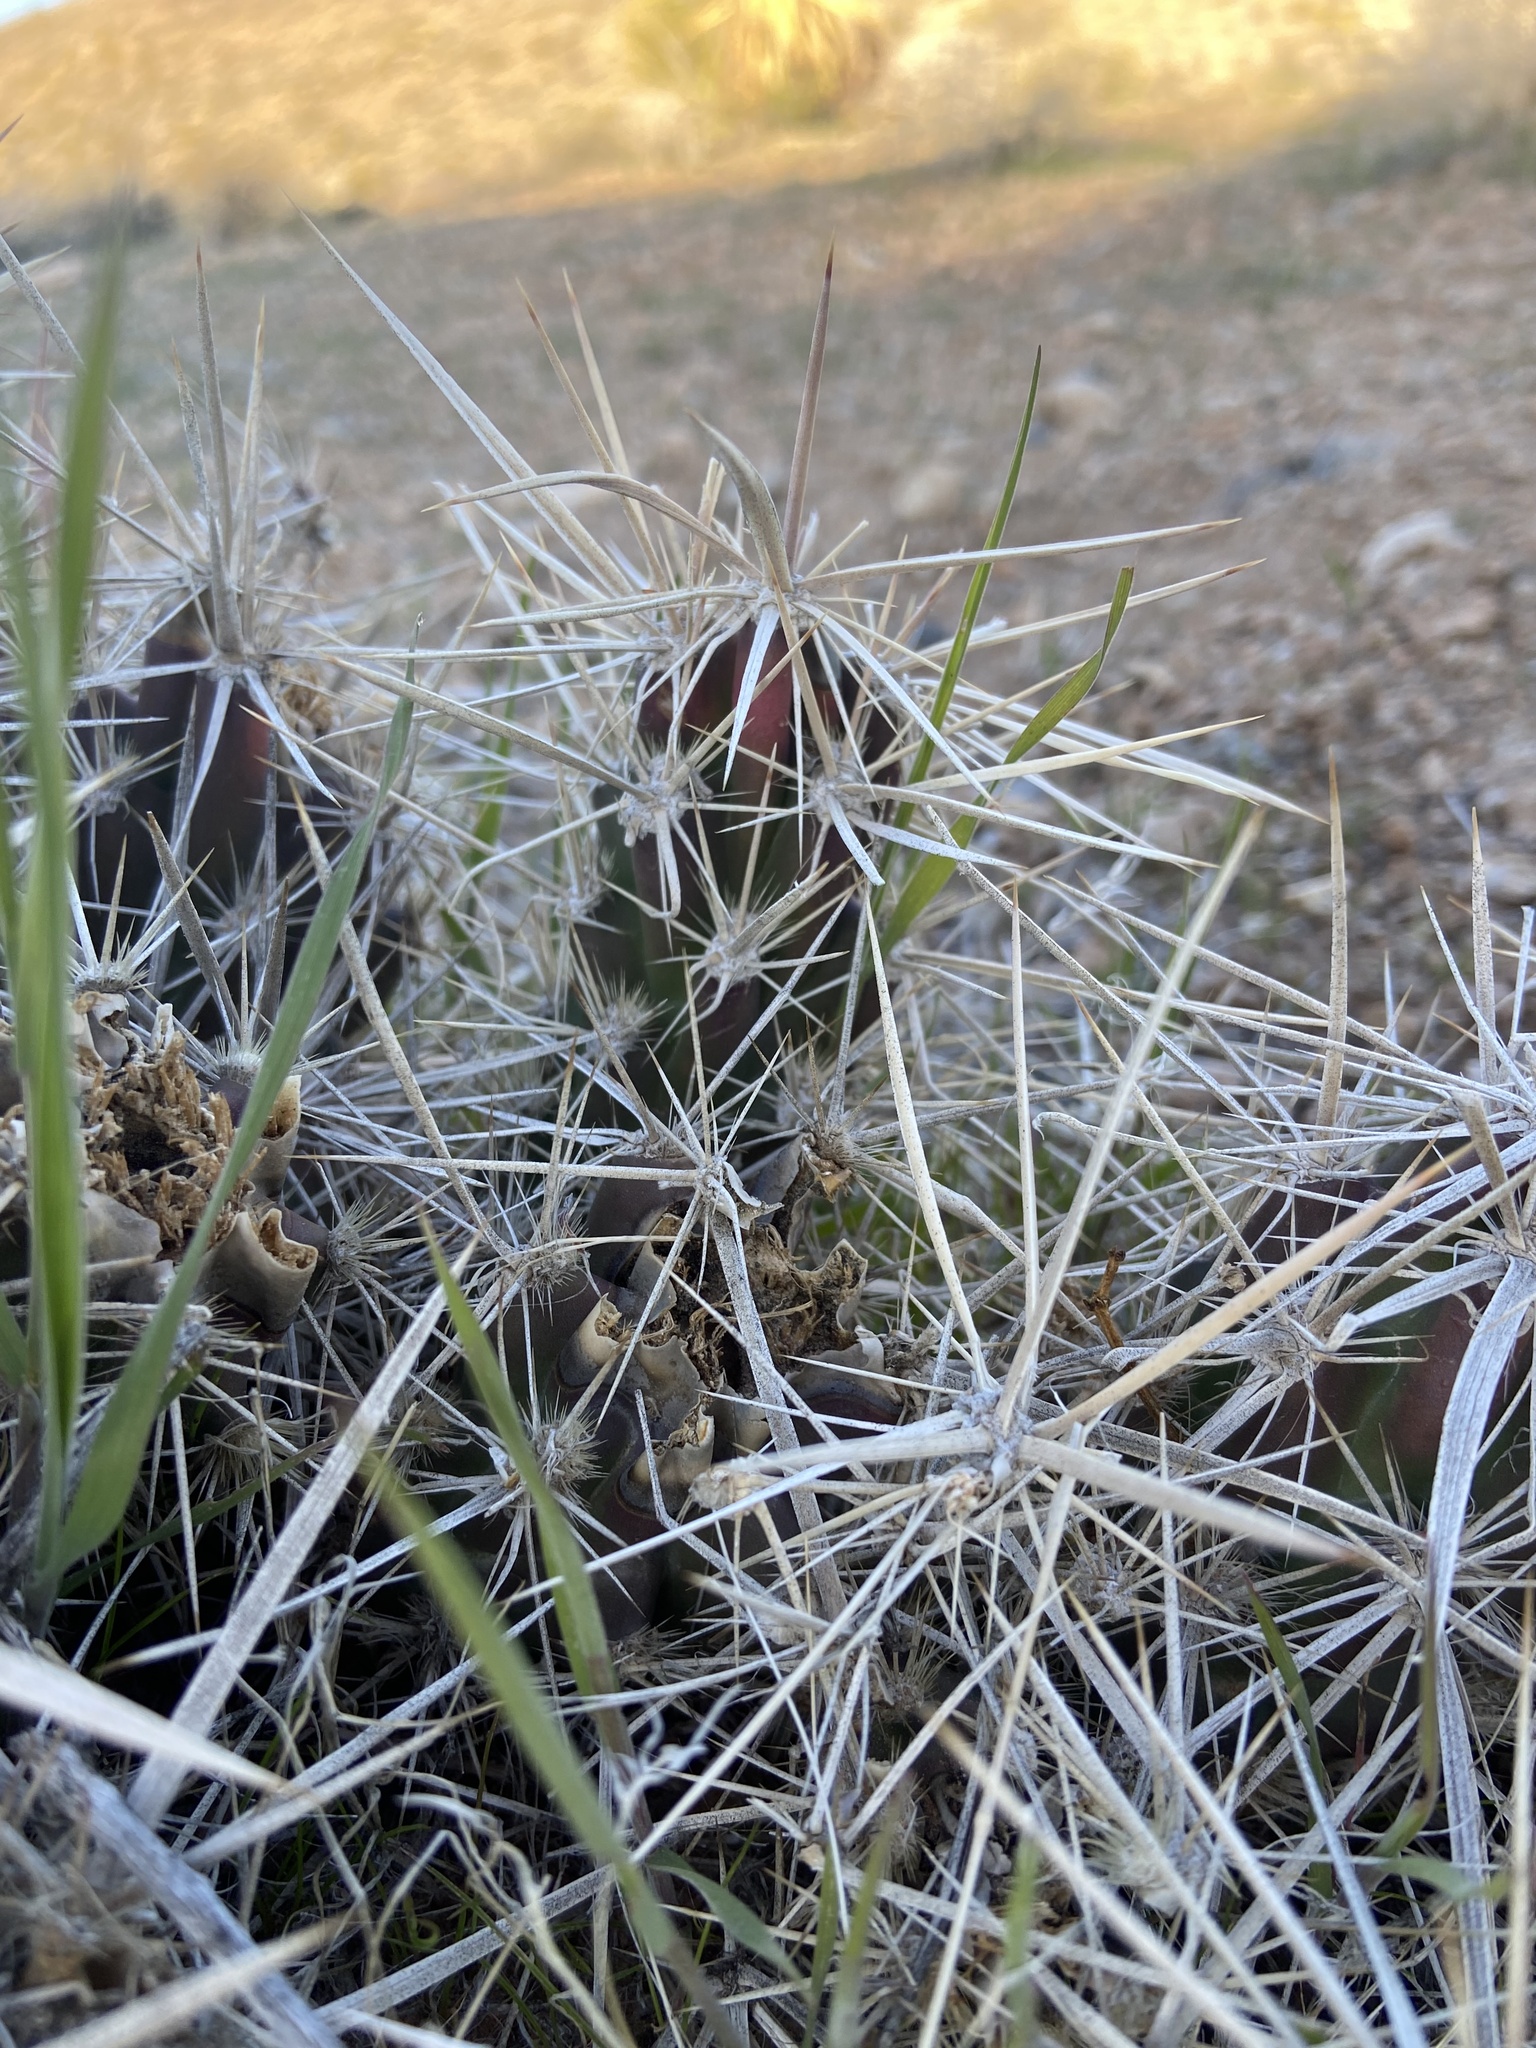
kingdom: Plantae
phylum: Tracheophyta
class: Magnoliopsida
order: Caryophyllales
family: Cactaceae
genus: Grusonia
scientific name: Grusonia parishiorum
